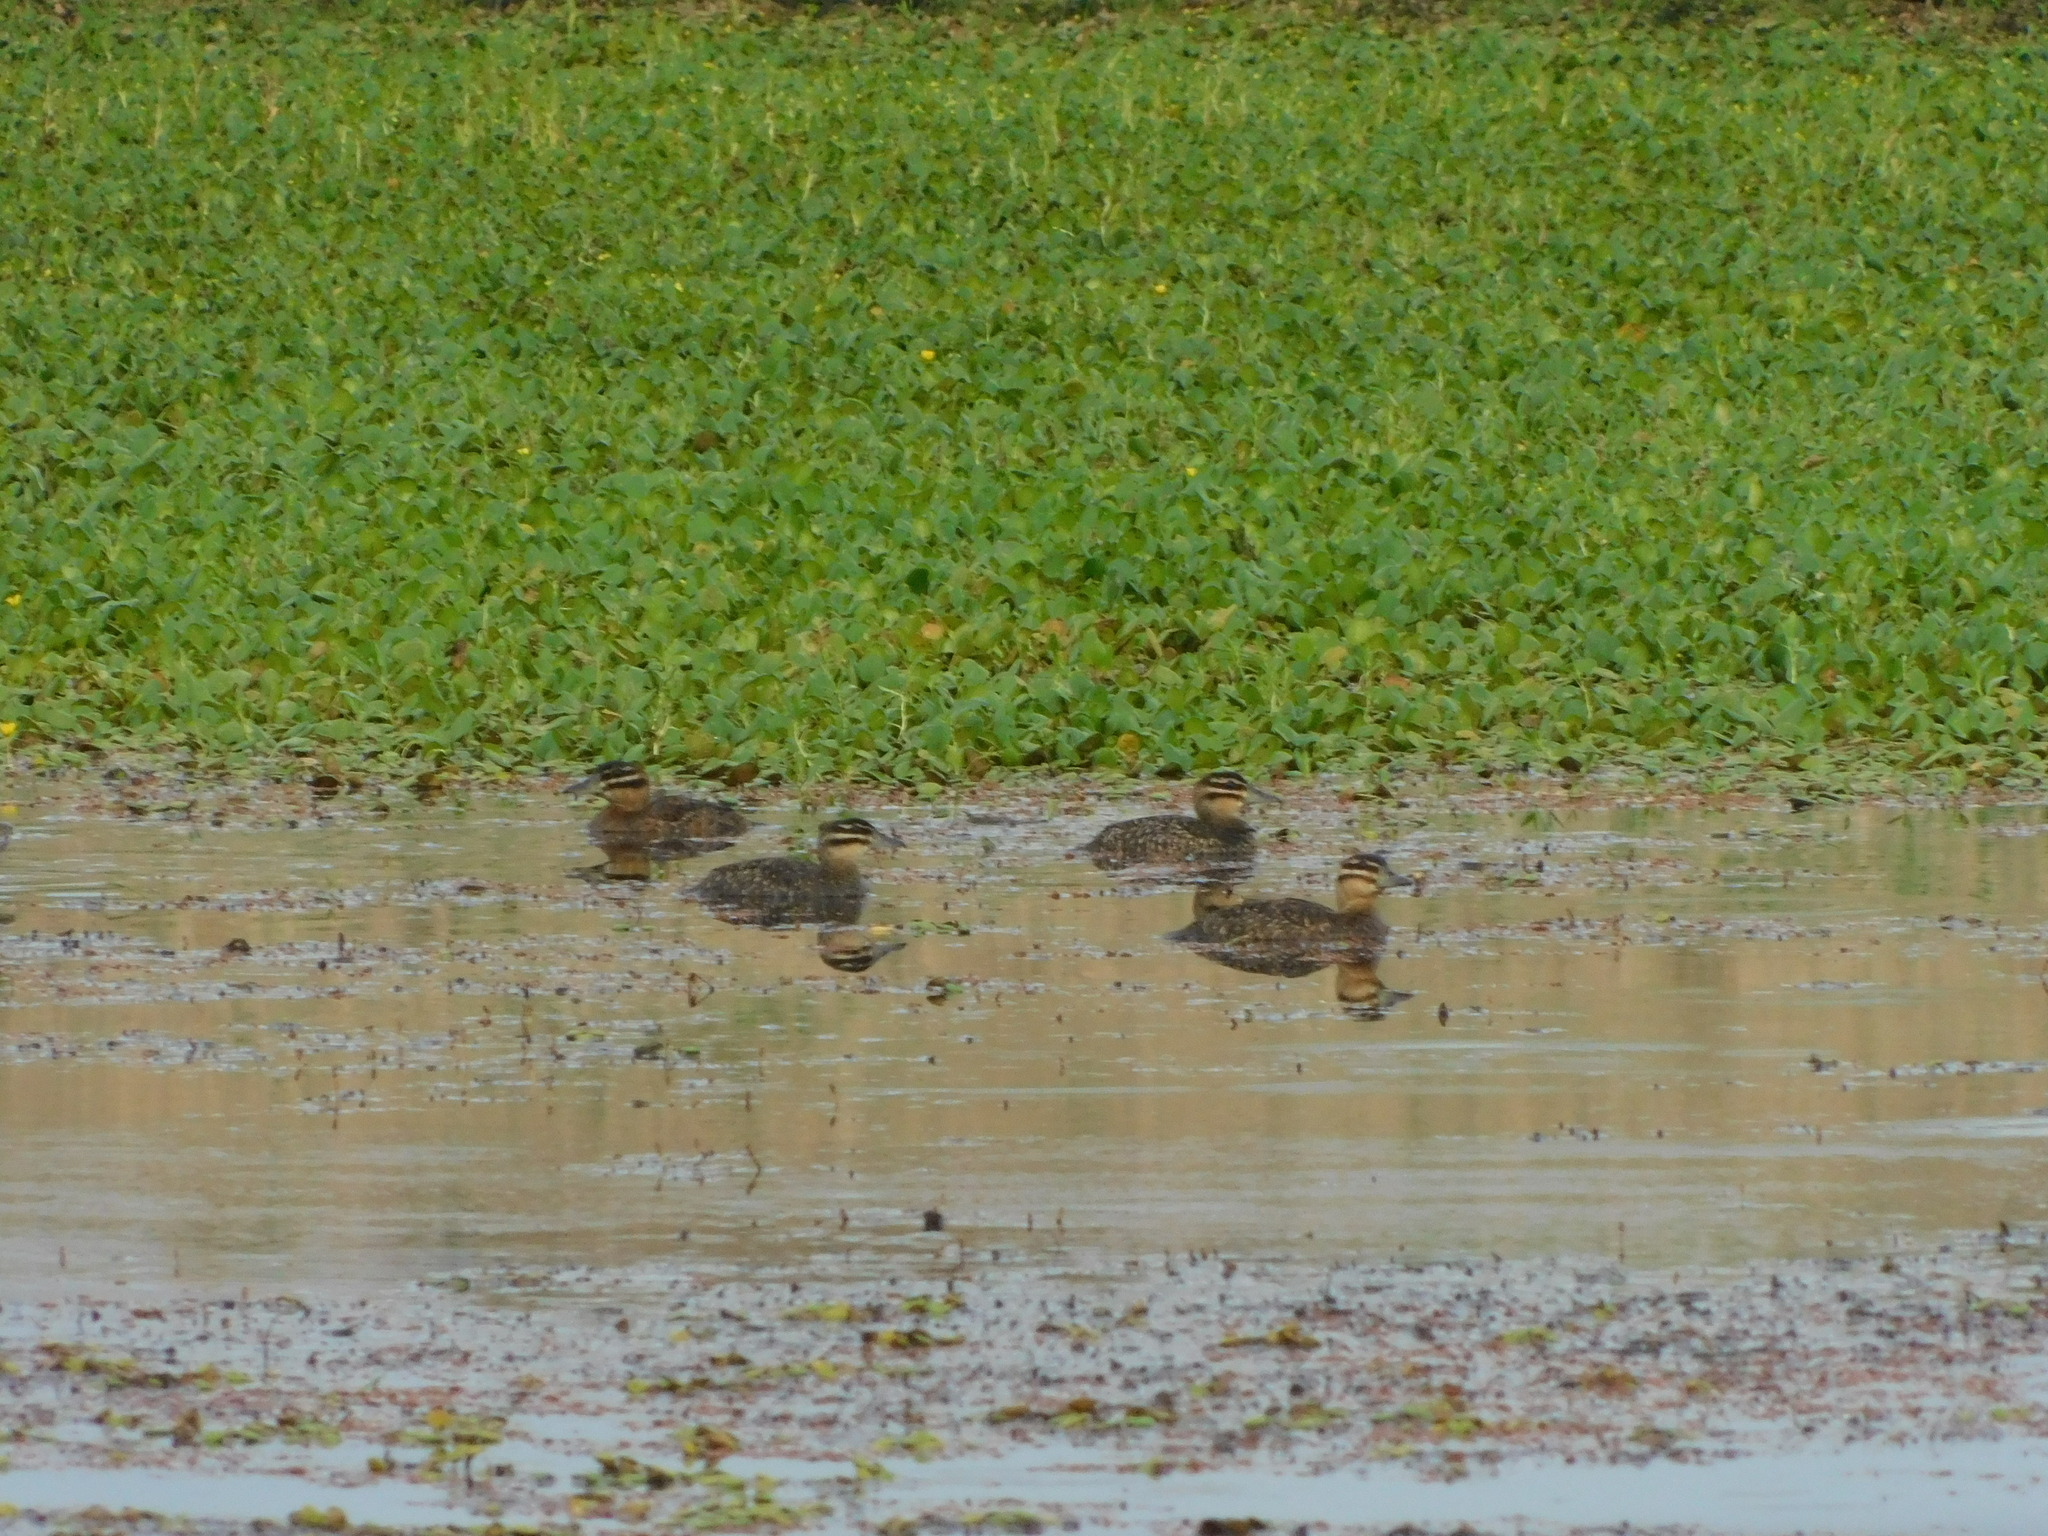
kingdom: Animalia
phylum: Chordata
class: Aves
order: Anseriformes
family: Anatidae
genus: Nomonyx
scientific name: Nomonyx dominicus
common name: Masked duck
